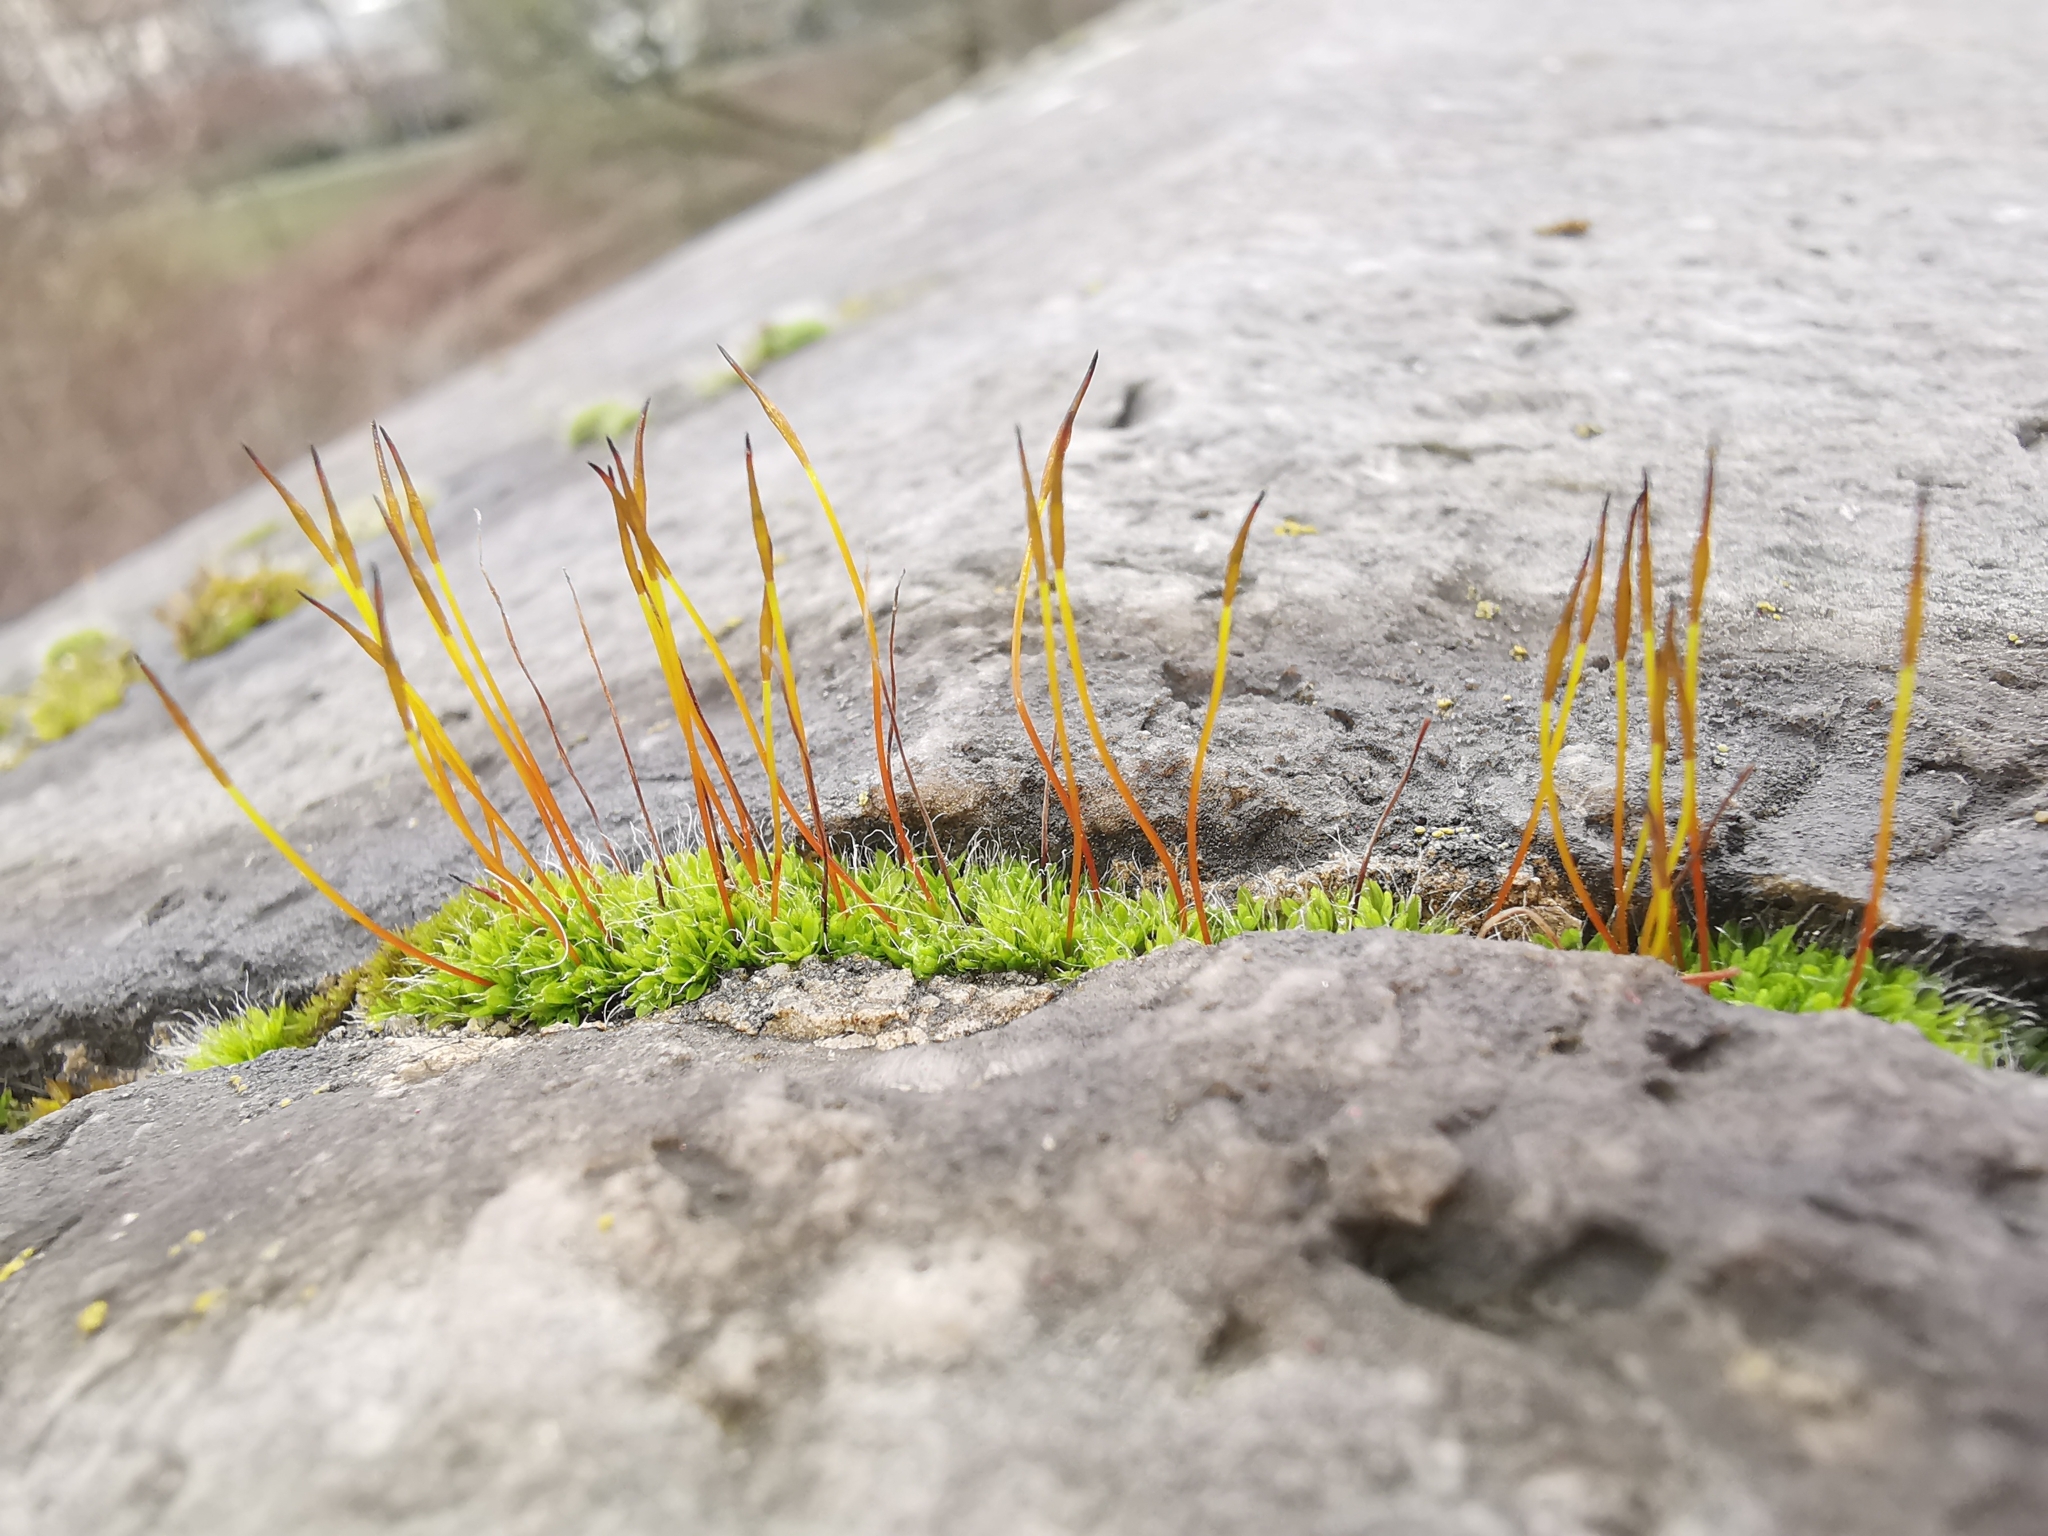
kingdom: Plantae
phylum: Bryophyta
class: Bryopsida
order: Pottiales
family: Pottiaceae
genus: Tortula
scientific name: Tortula muralis
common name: Wall screw-moss
